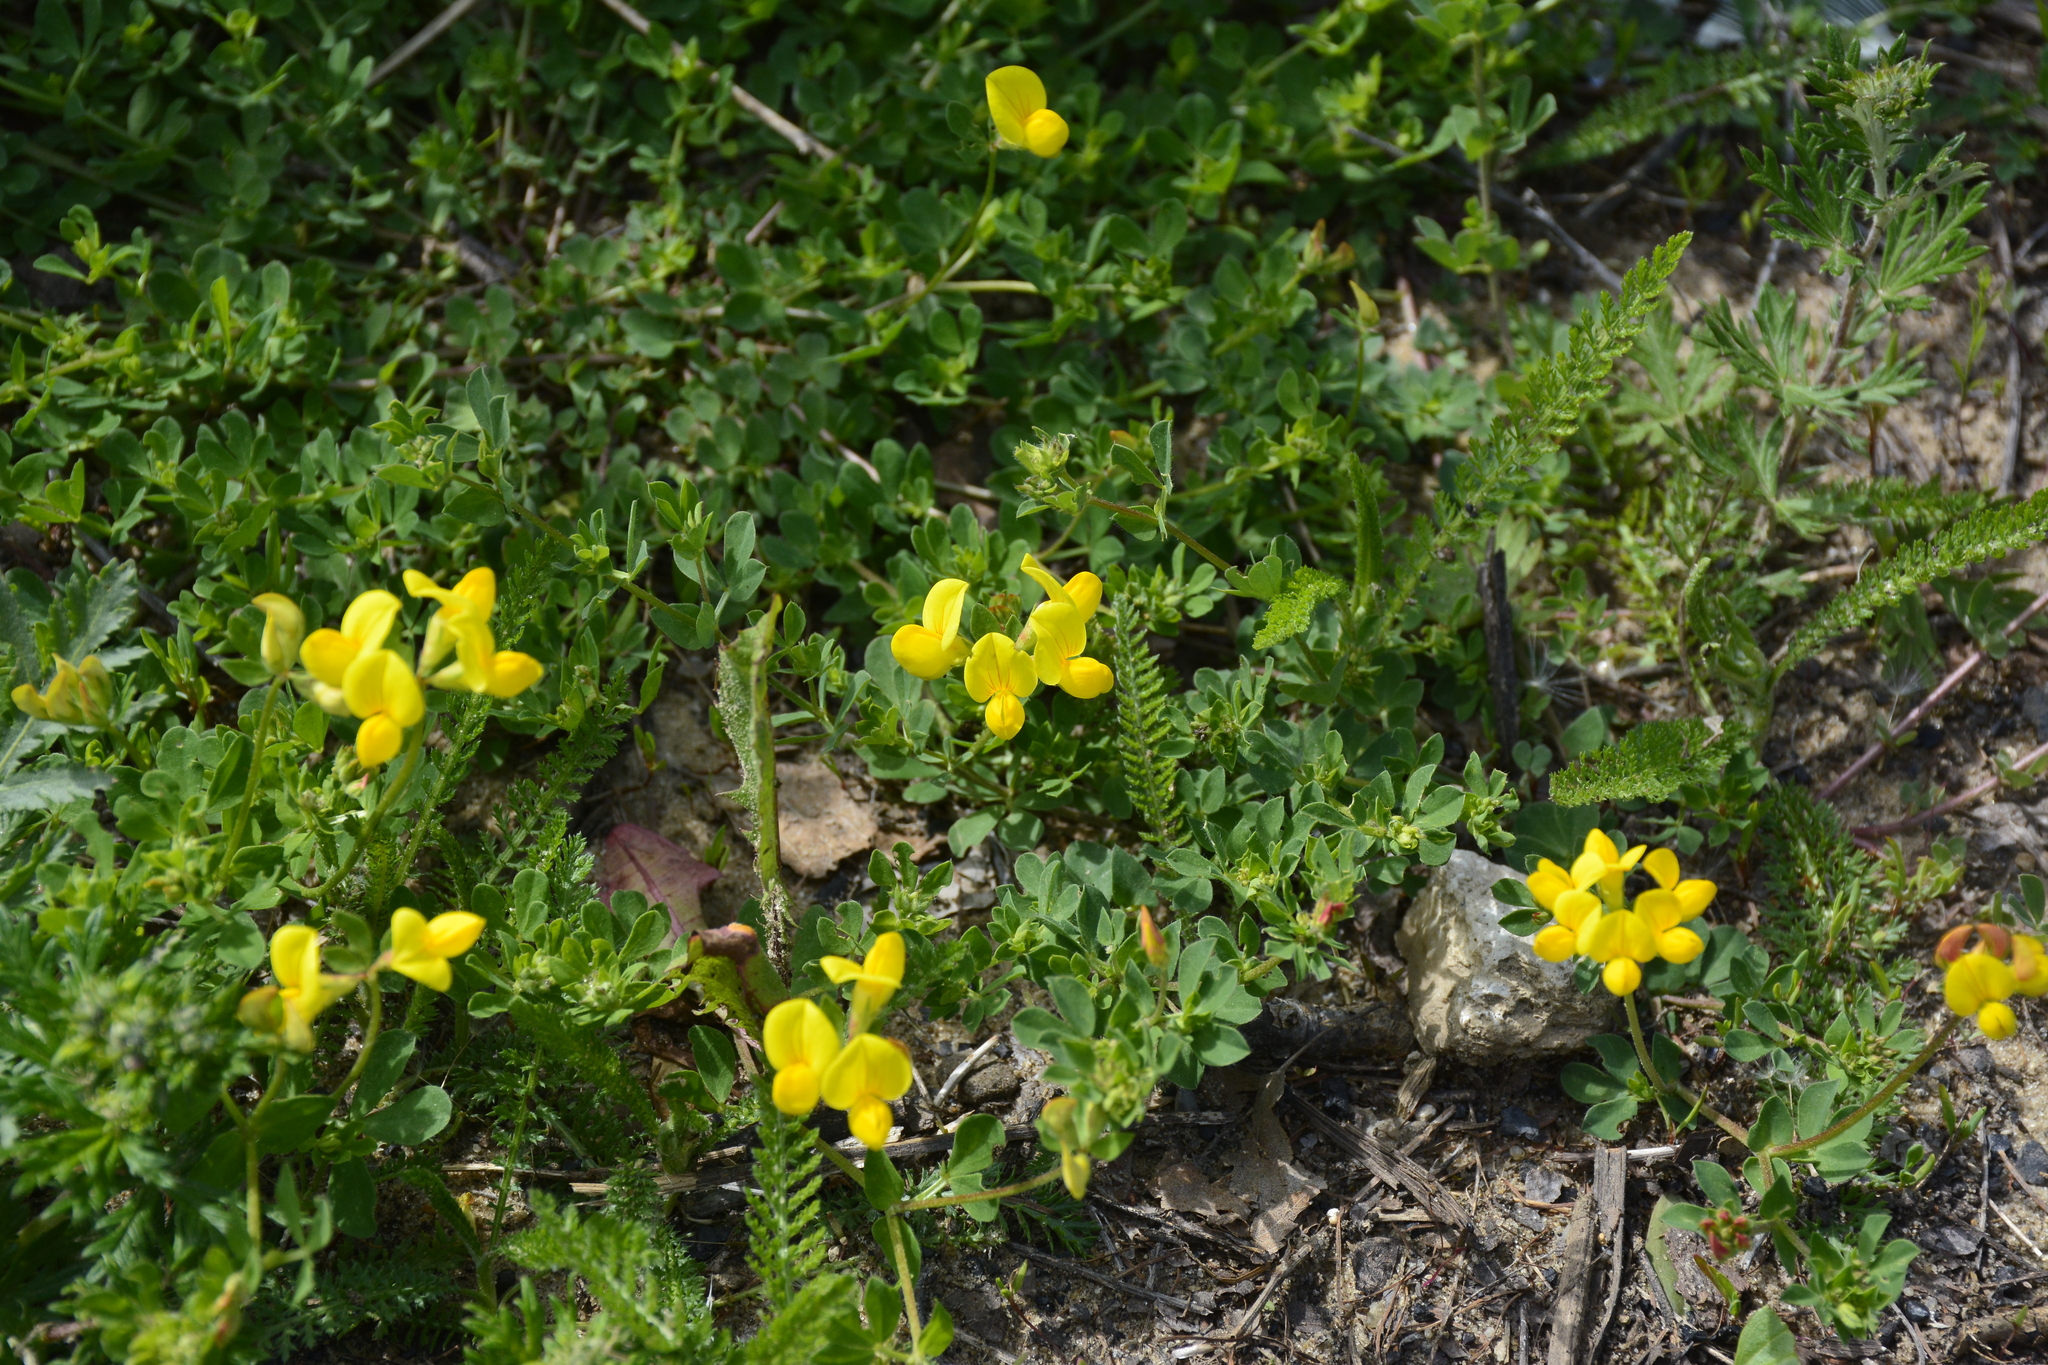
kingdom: Plantae
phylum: Tracheophyta
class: Magnoliopsida
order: Fabales
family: Fabaceae
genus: Lotus
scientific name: Lotus corniculatus
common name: Common bird's-foot-trefoil
